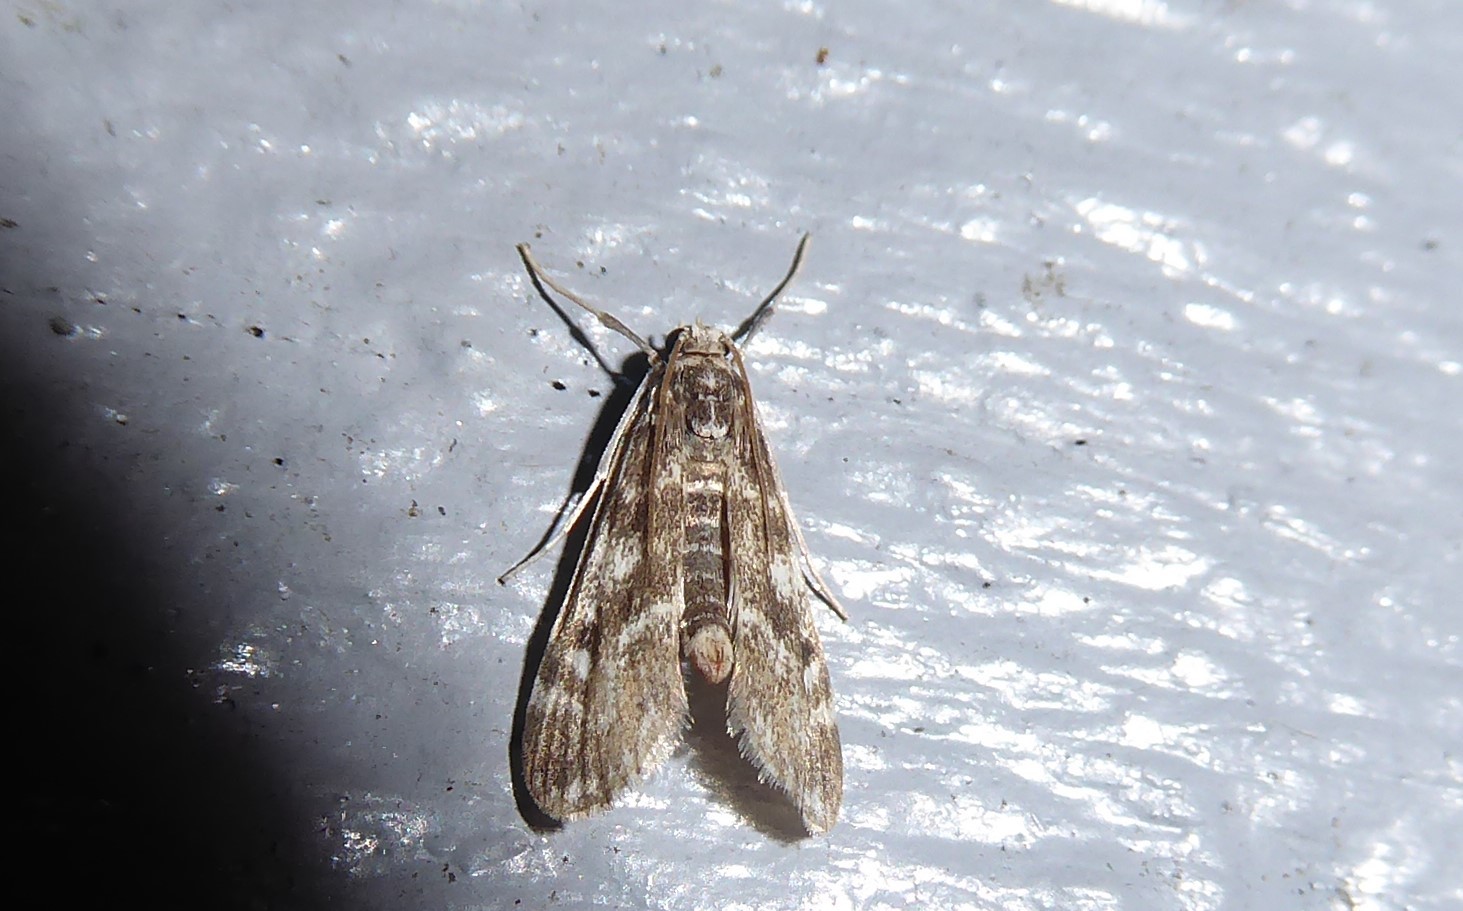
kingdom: Animalia
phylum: Arthropoda
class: Insecta
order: Lepidoptera
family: Crambidae
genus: Hygraula
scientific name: Hygraula nitens
